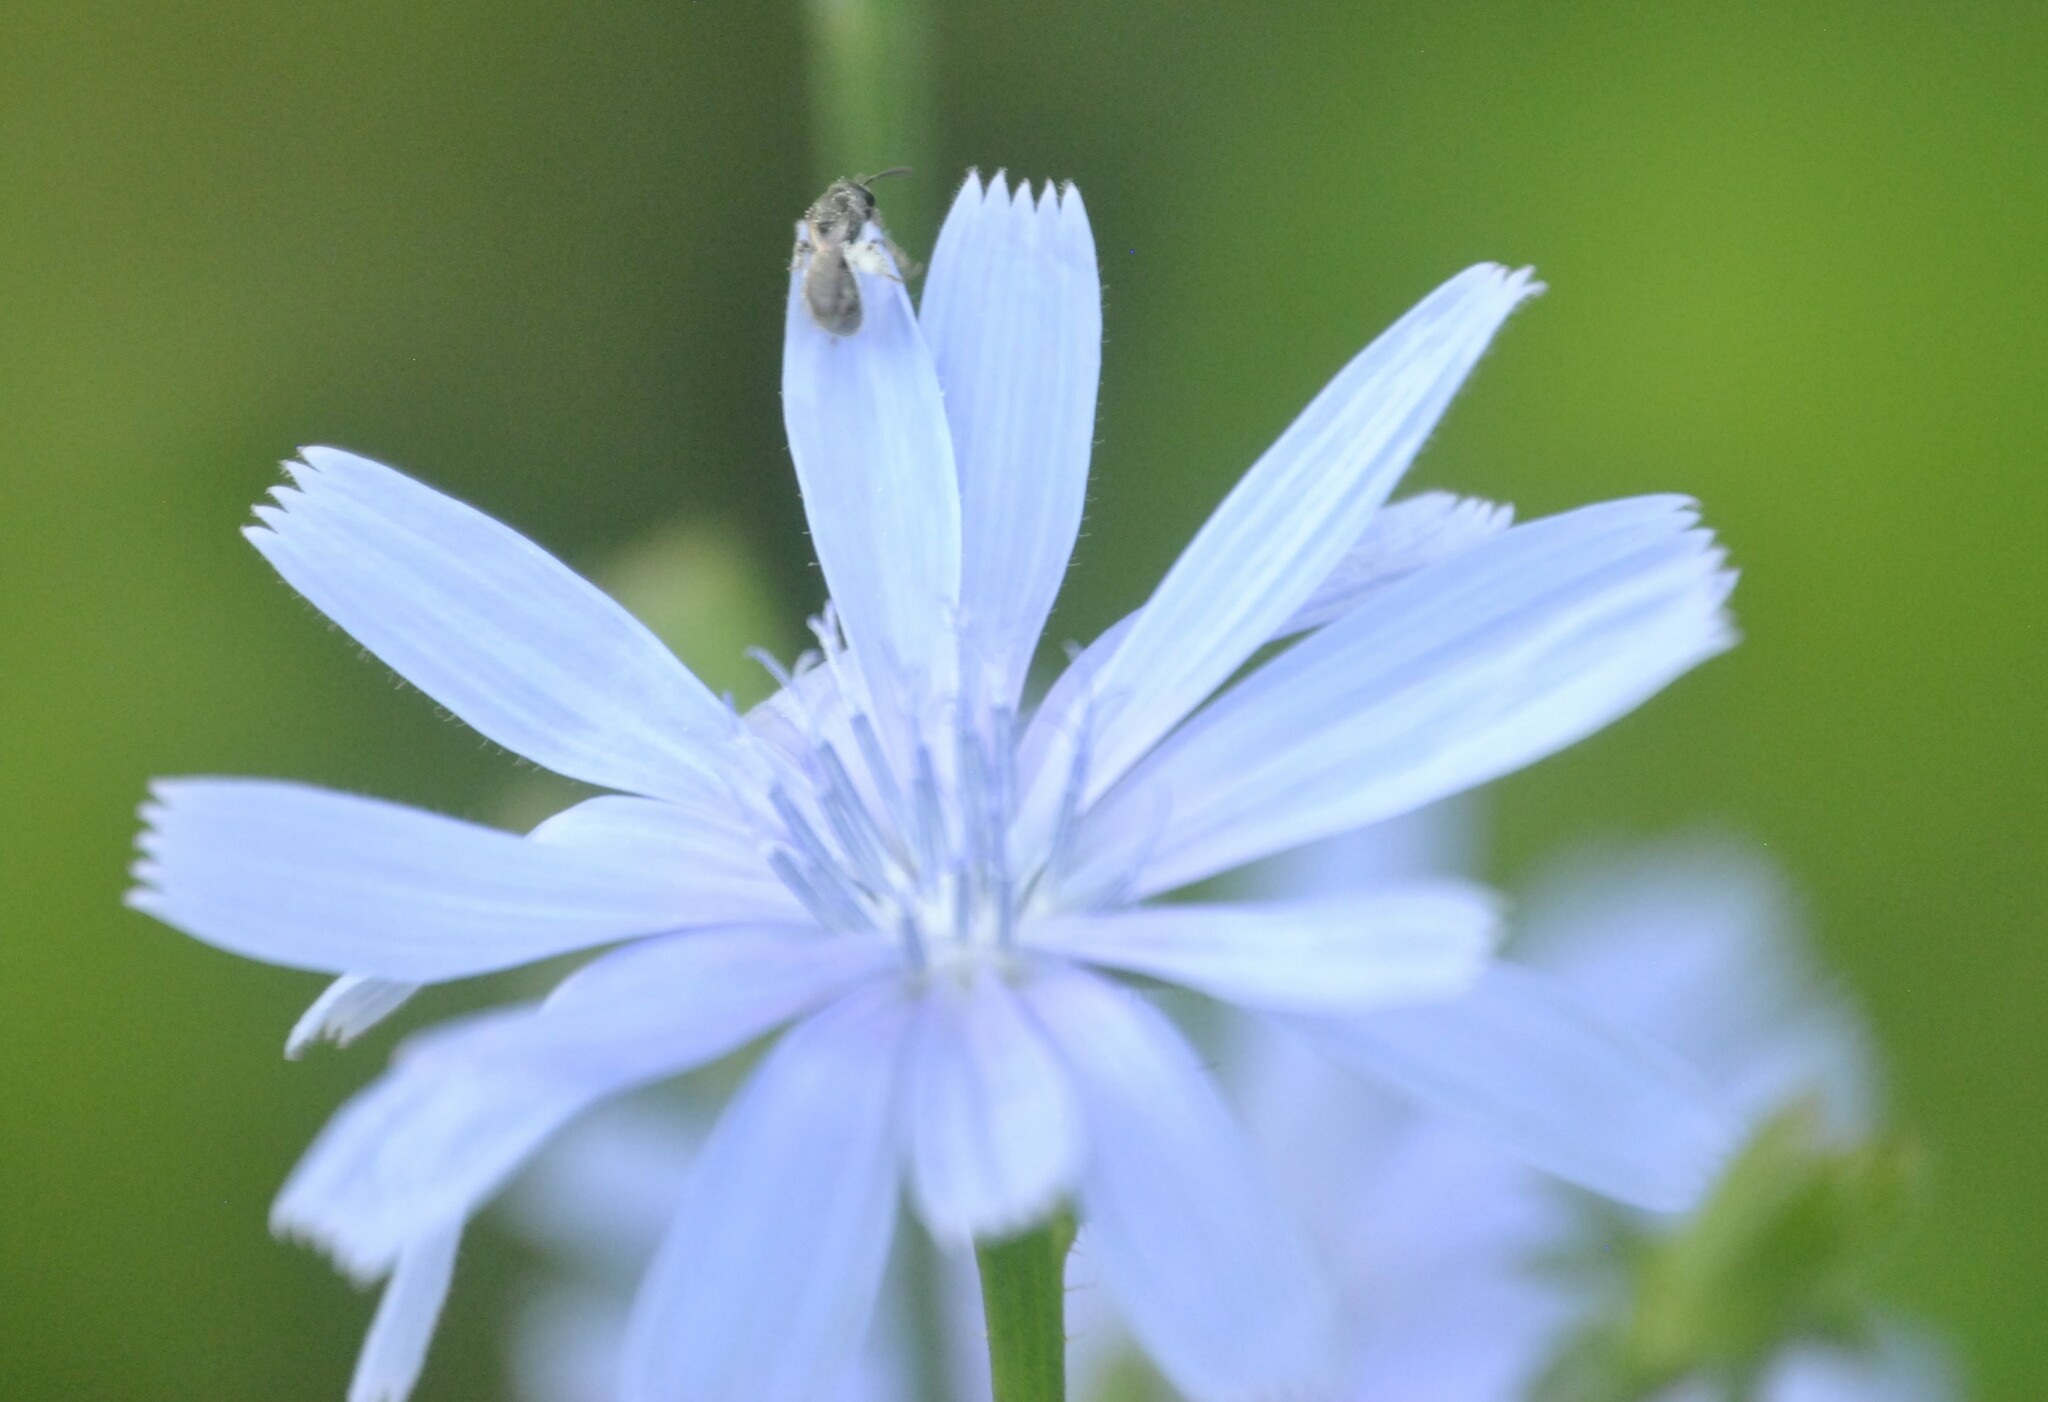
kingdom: Plantae
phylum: Tracheophyta
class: Magnoliopsida
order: Asterales
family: Asteraceae
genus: Cichorium
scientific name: Cichorium intybus
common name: Chicory
